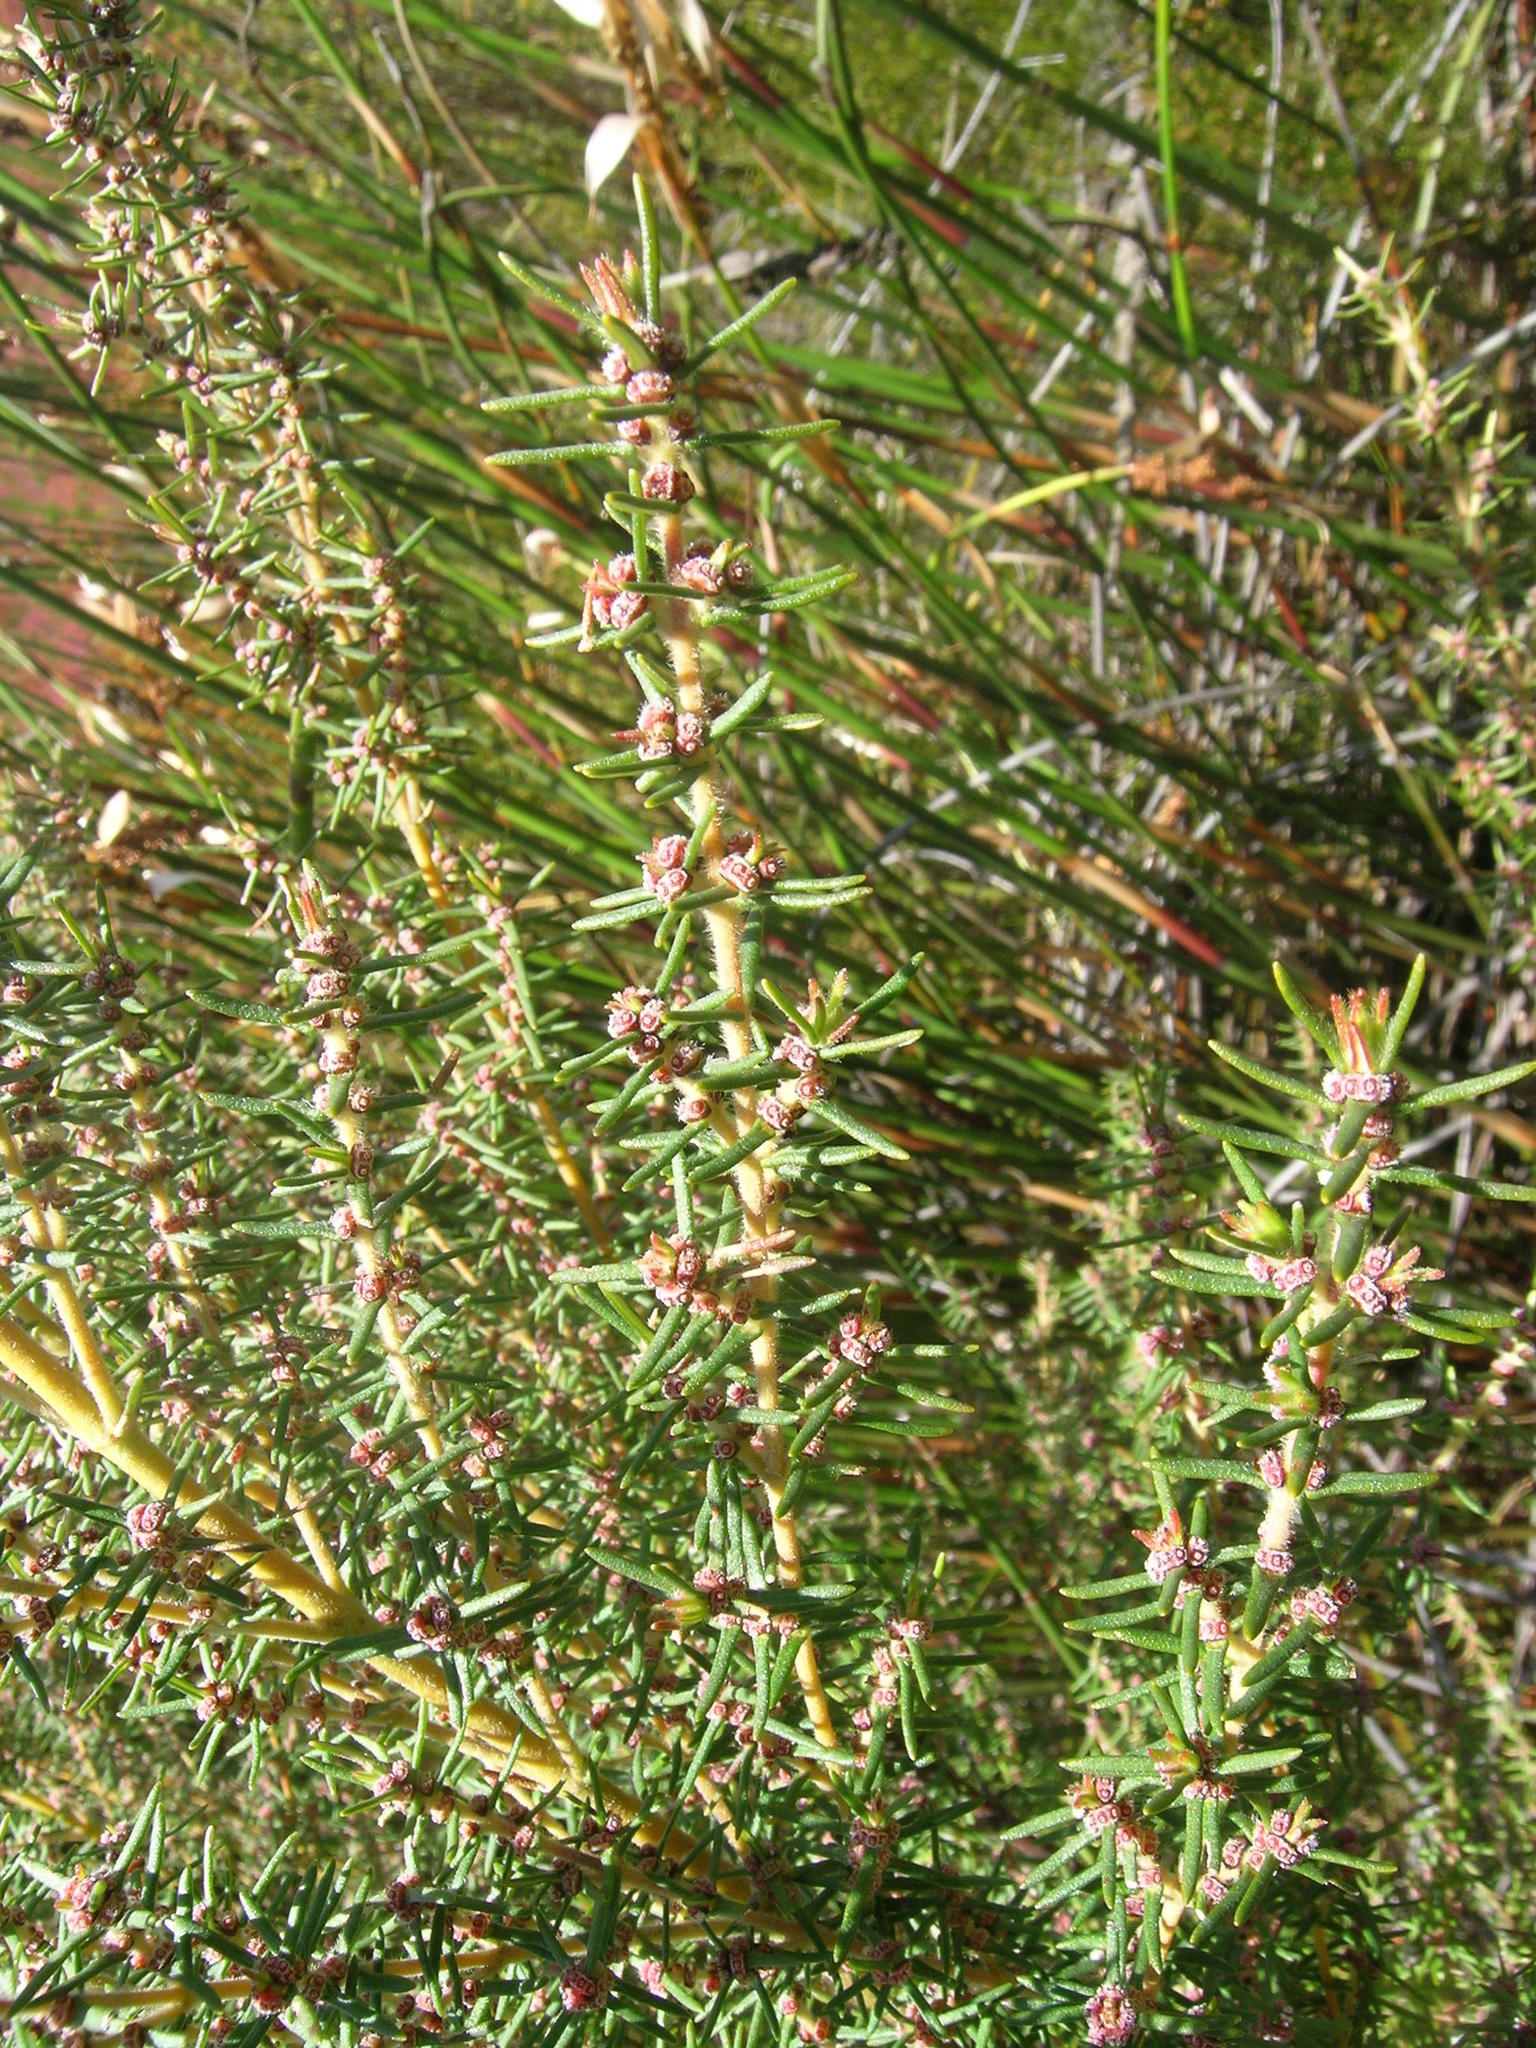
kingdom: Plantae
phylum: Tracheophyta
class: Magnoliopsida
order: Cornales
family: Grubbiaceae
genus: Grubbia
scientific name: Grubbia rosmarinifolia
